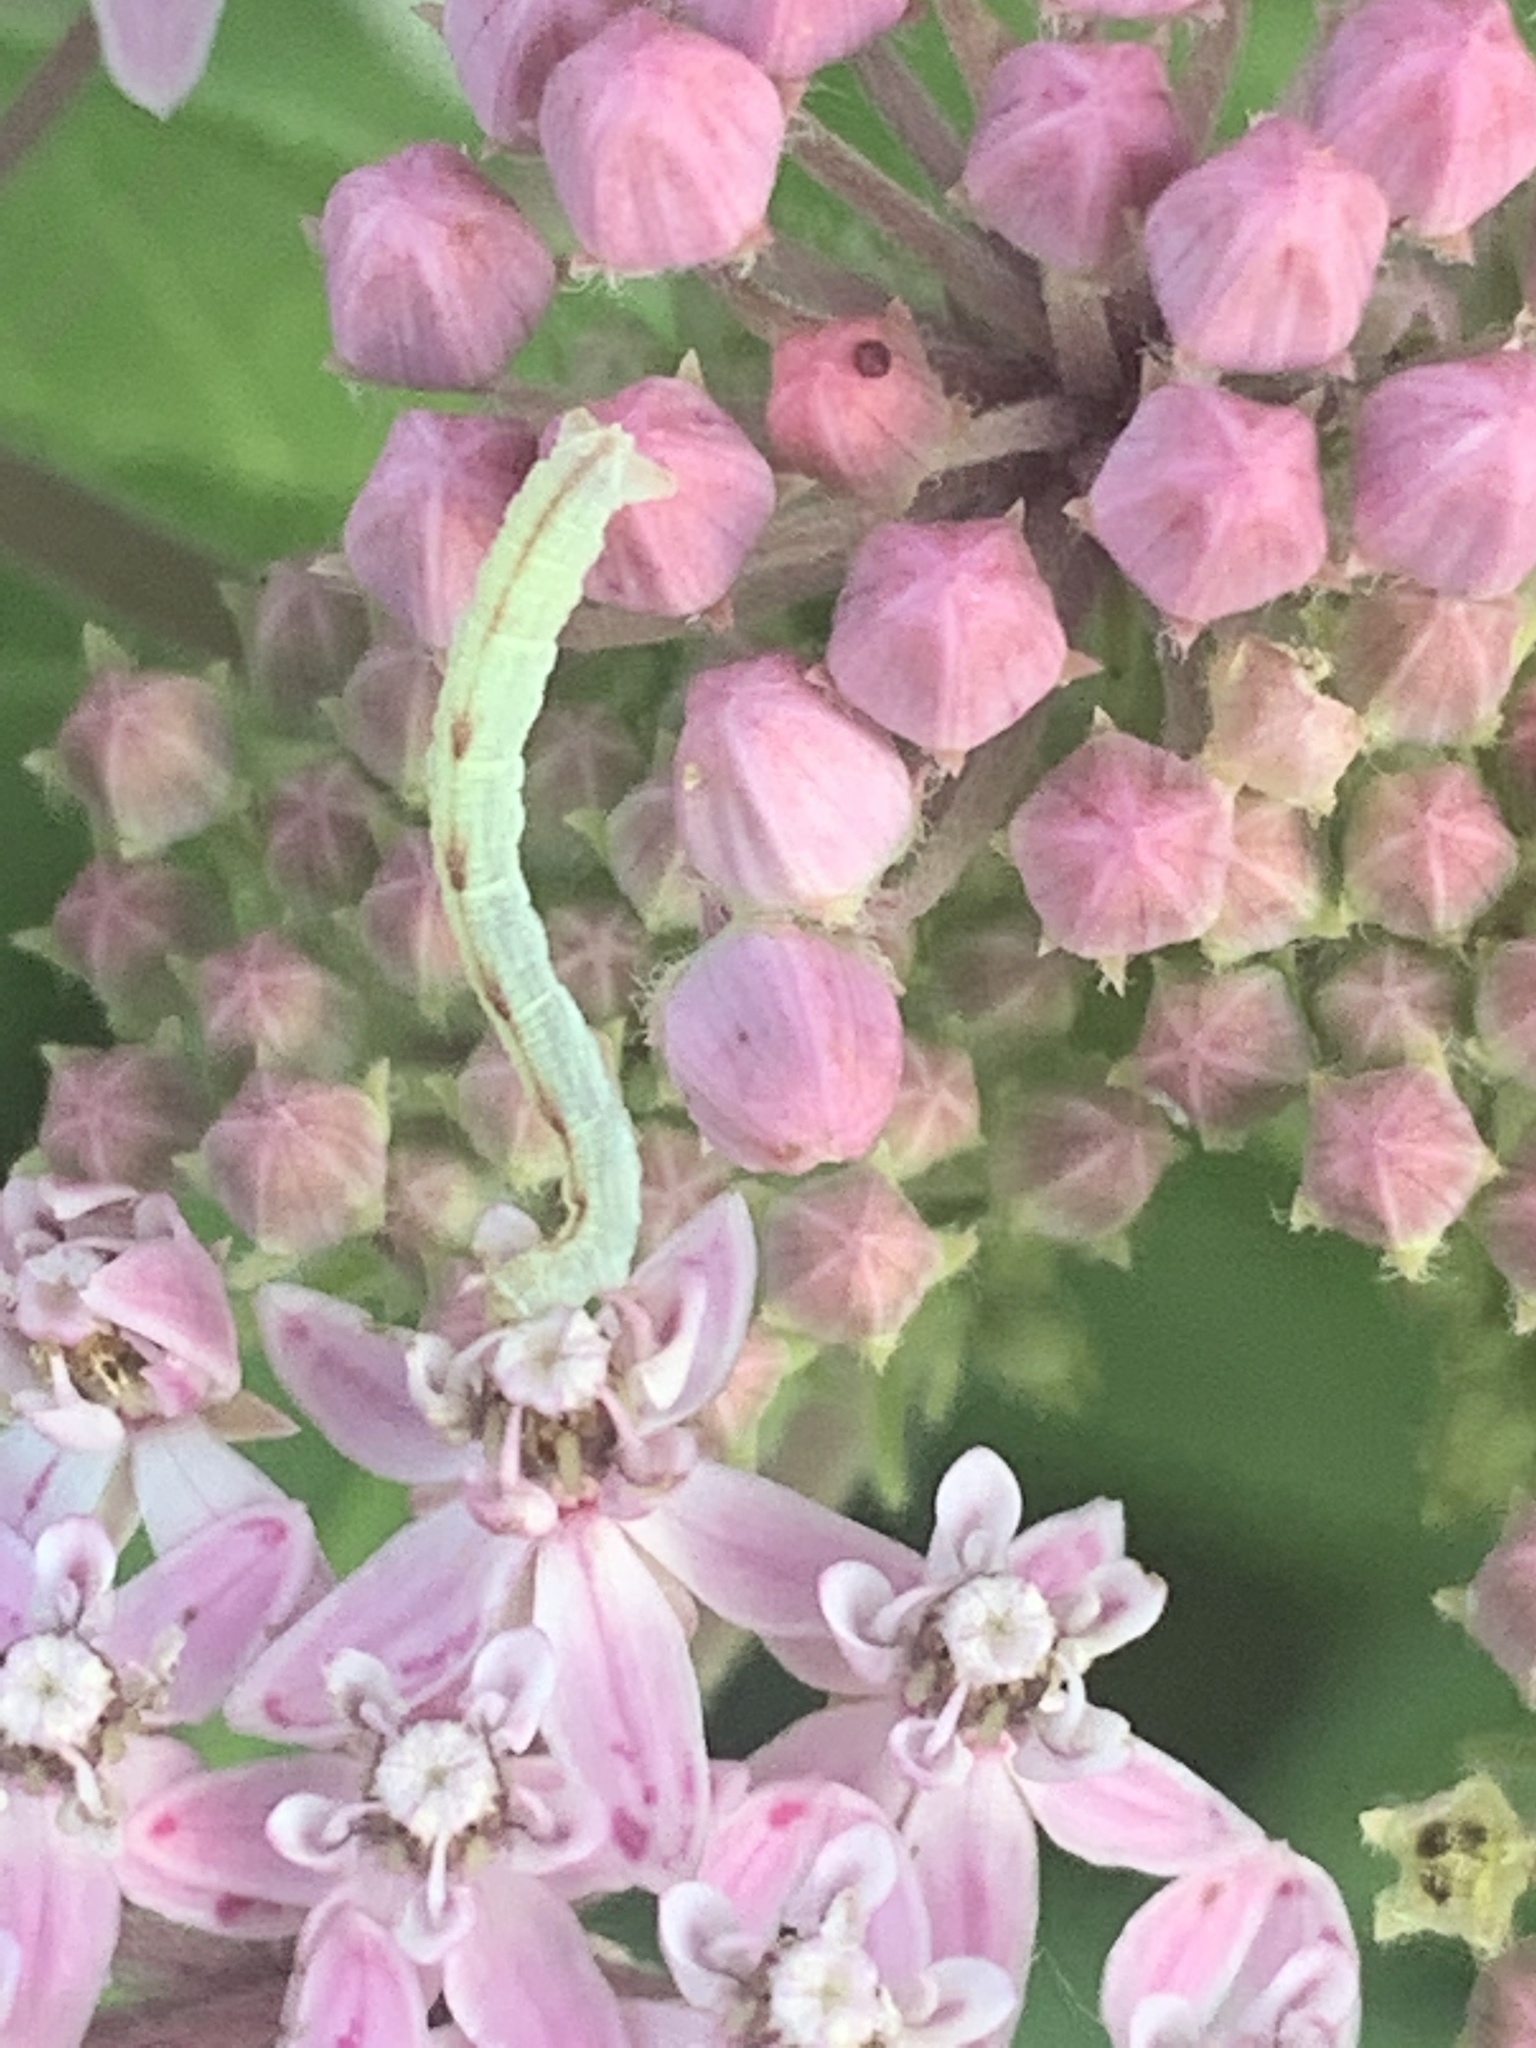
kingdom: Animalia
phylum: Arthropoda
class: Insecta
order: Lepidoptera
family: Geometridae
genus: Eupithecia
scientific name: Eupithecia
